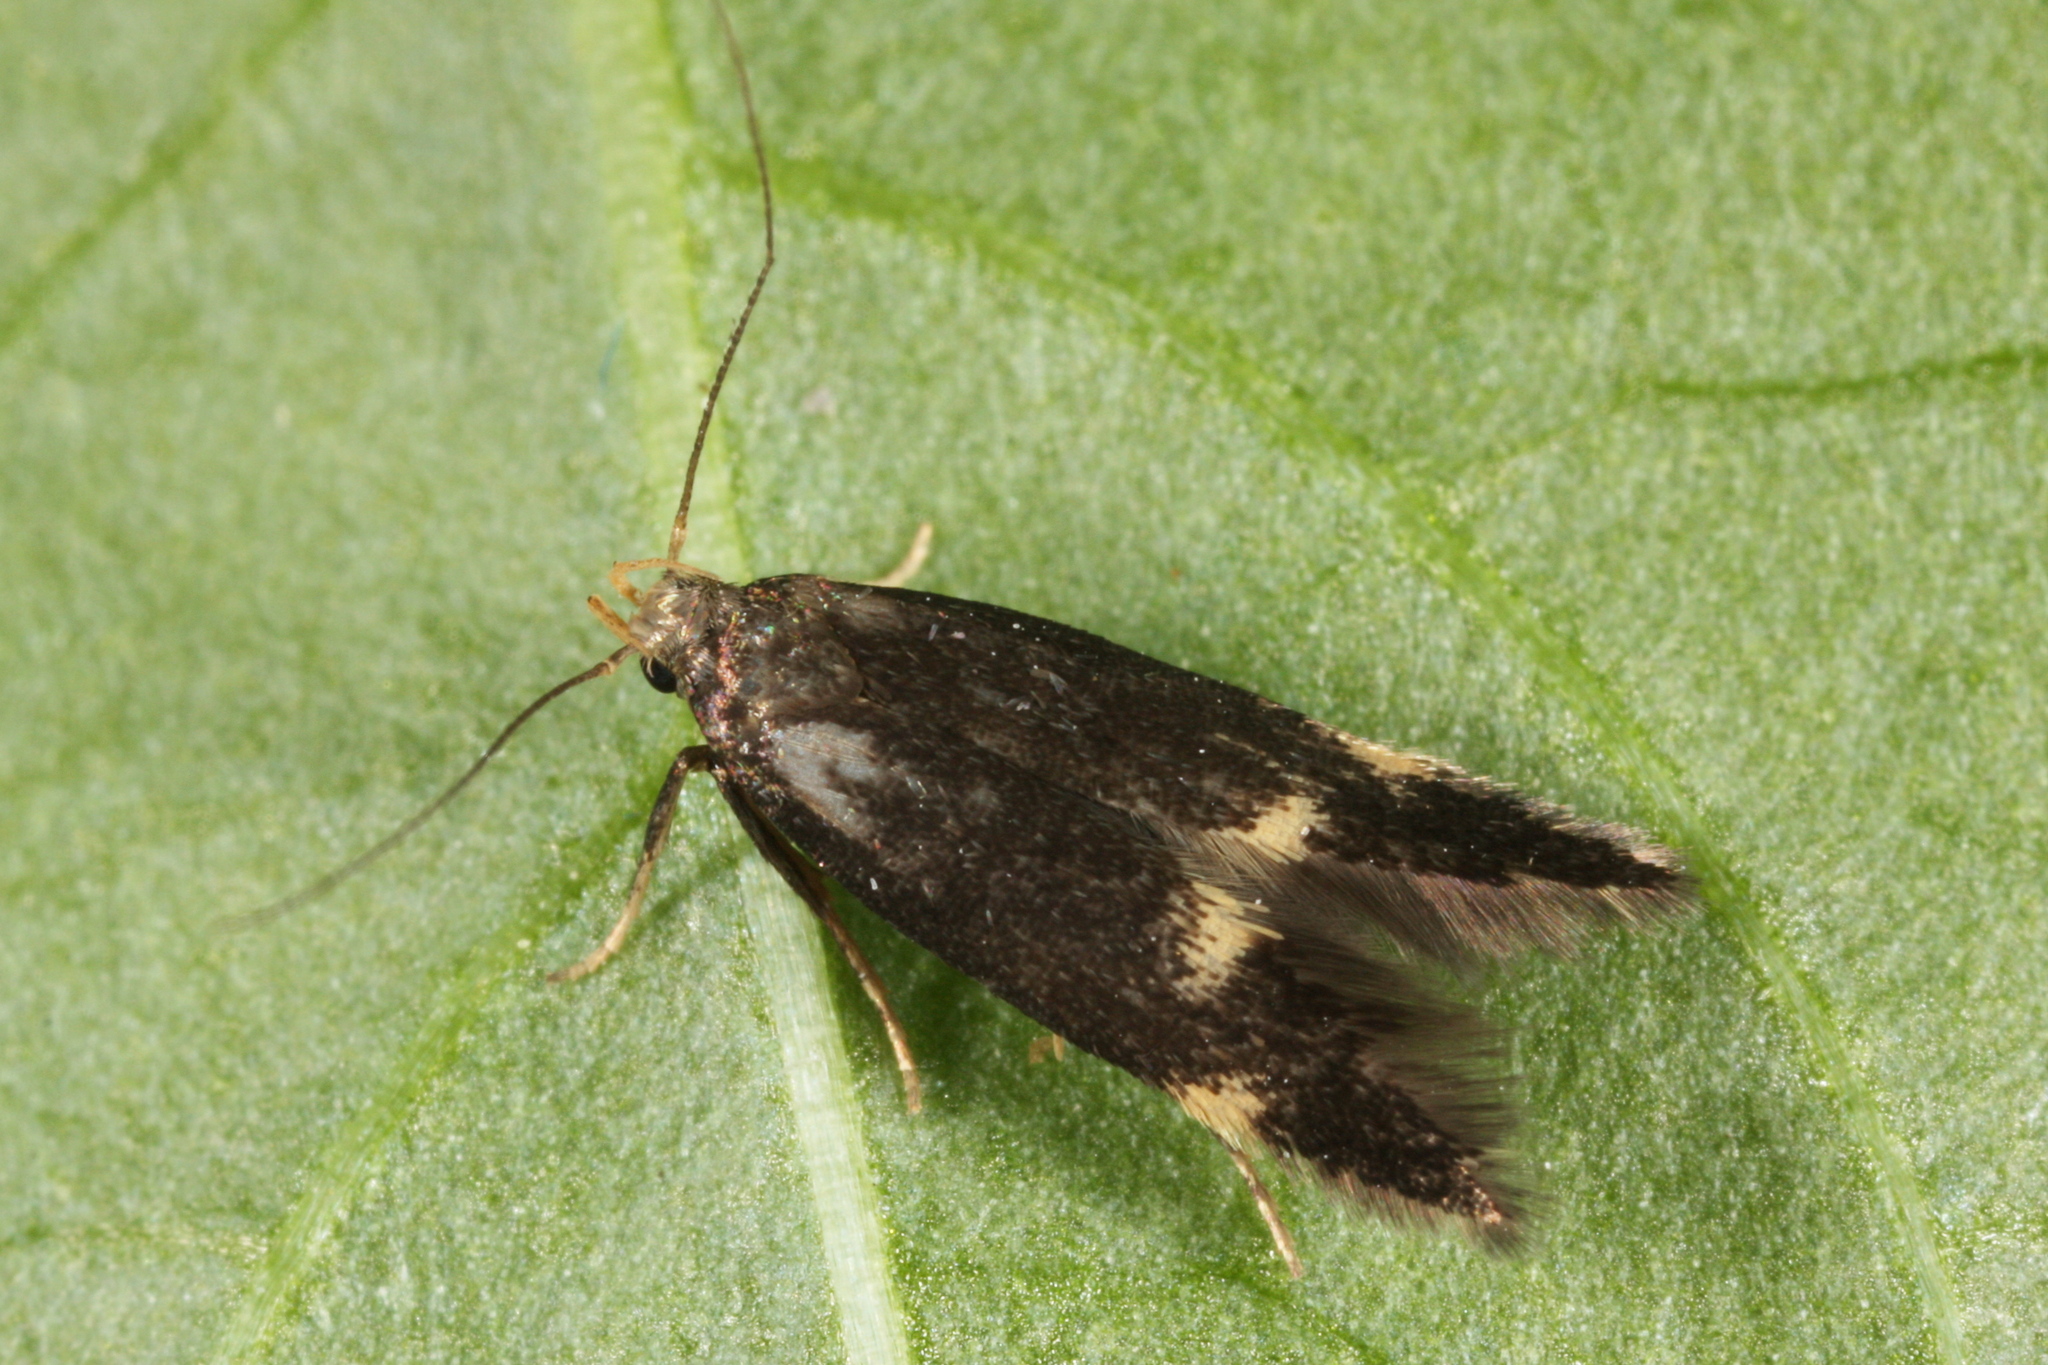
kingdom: Animalia
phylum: Arthropoda
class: Insecta
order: Lepidoptera
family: Gelechiidae
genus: Oxypteryx
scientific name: Oxypteryx atrella
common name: Two-spotted neb
